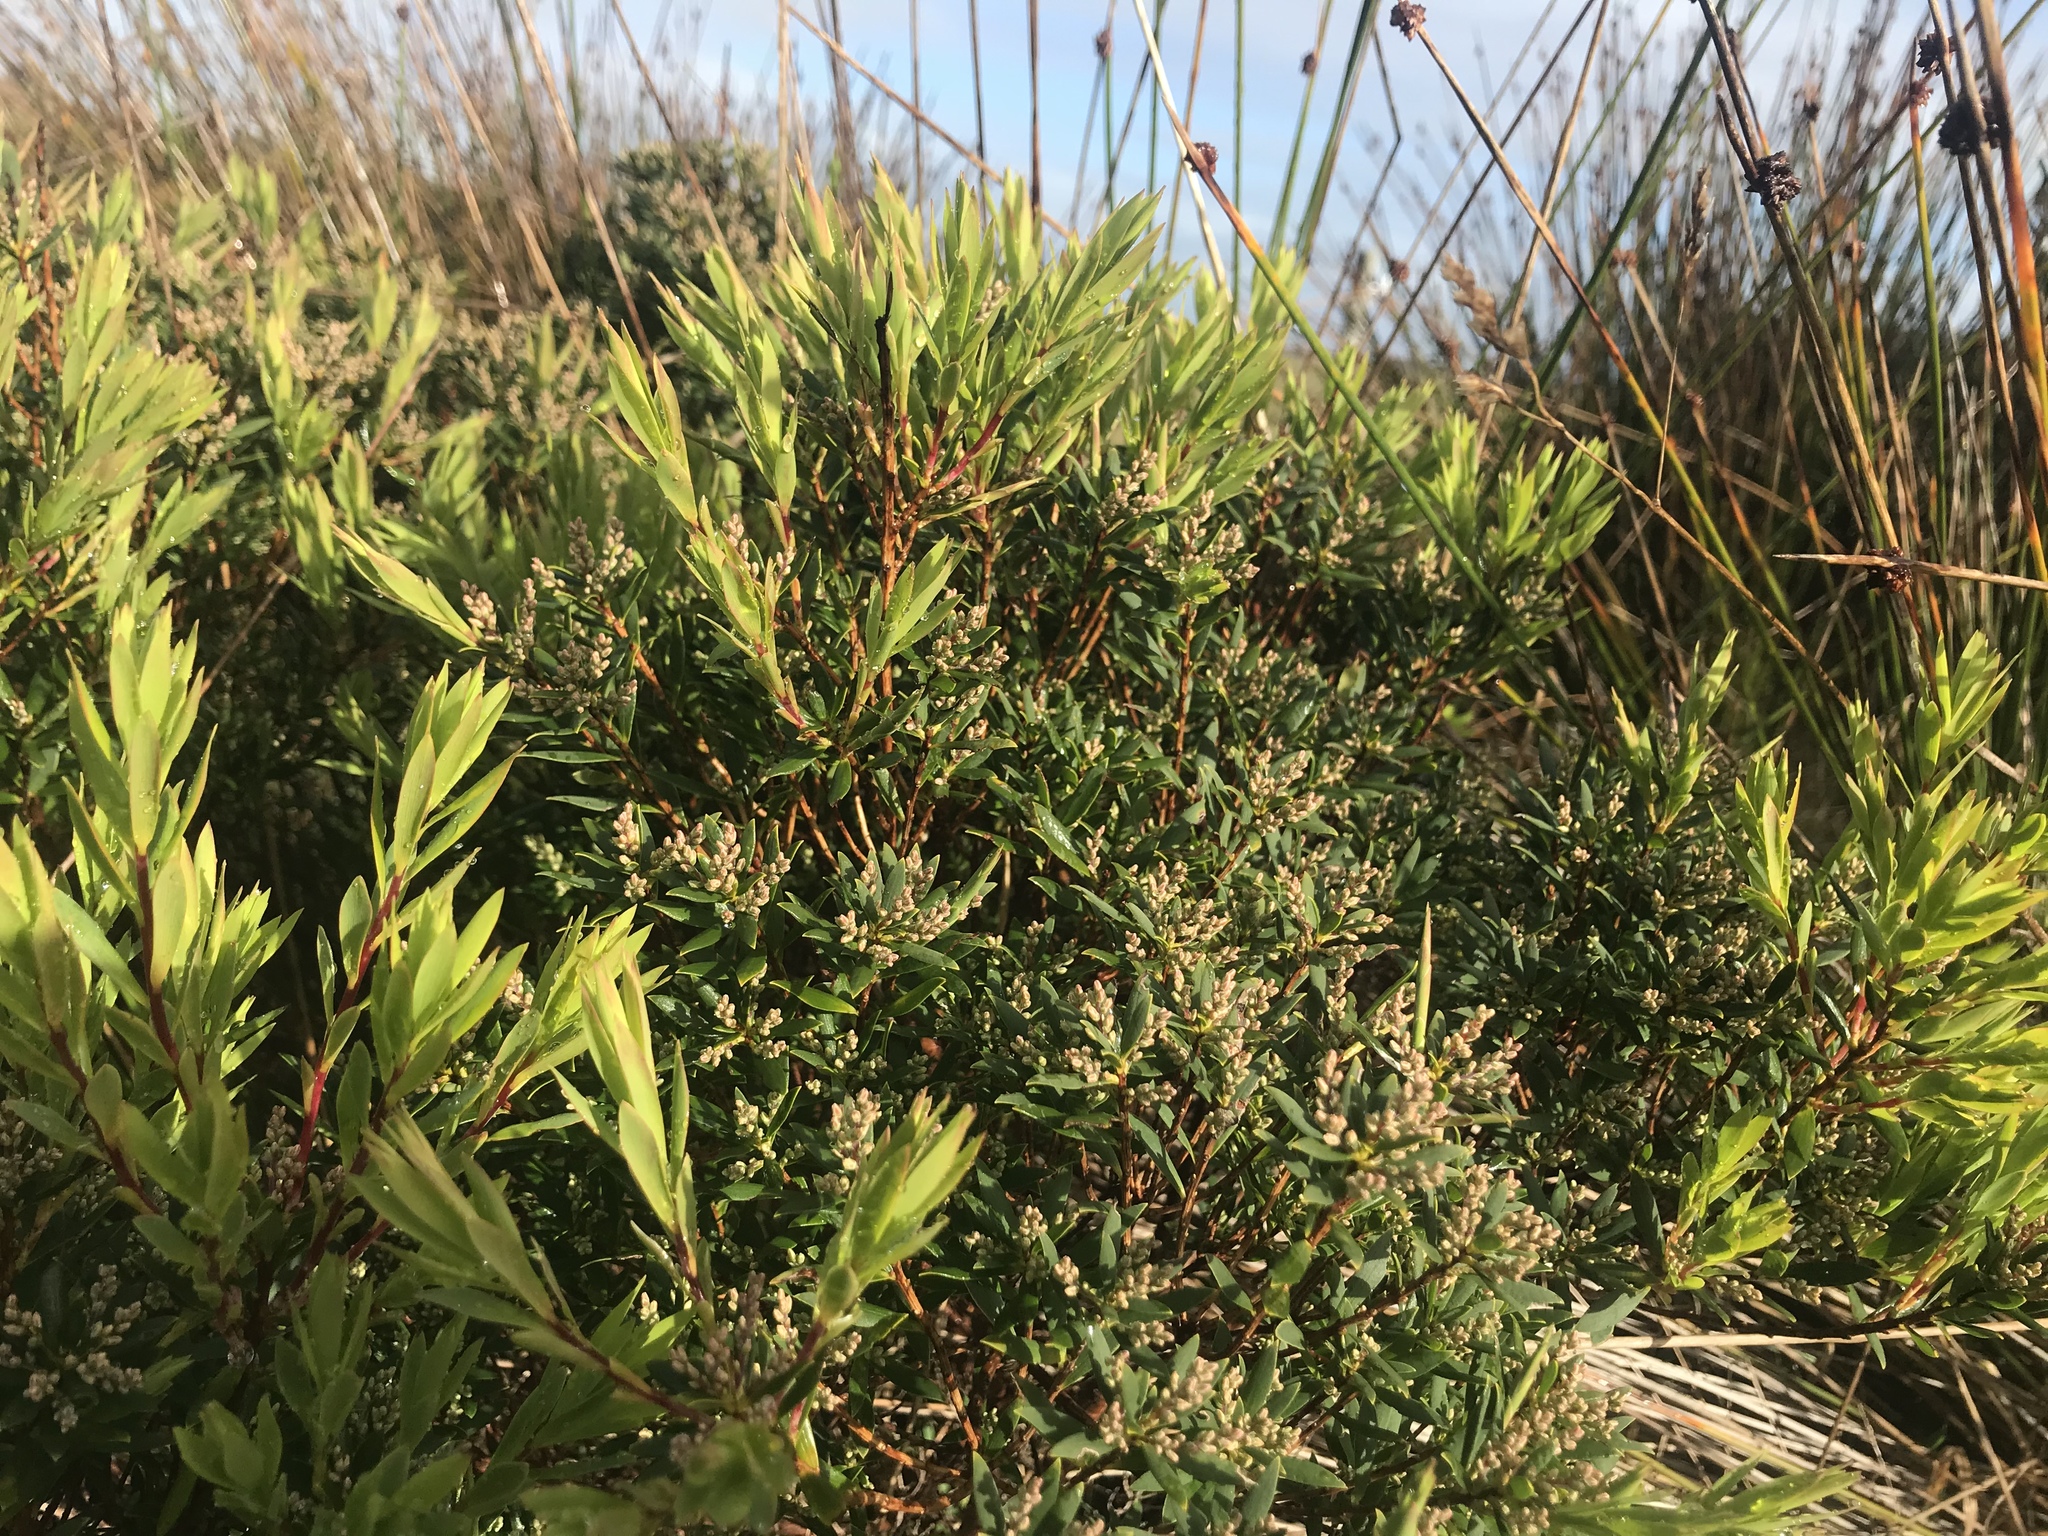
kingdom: Plantae
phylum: Tracheophyta
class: Magnoliopsida
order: Ericales
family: Ericaceae
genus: Leptecophylla
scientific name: Leptecophylla parvifolia
